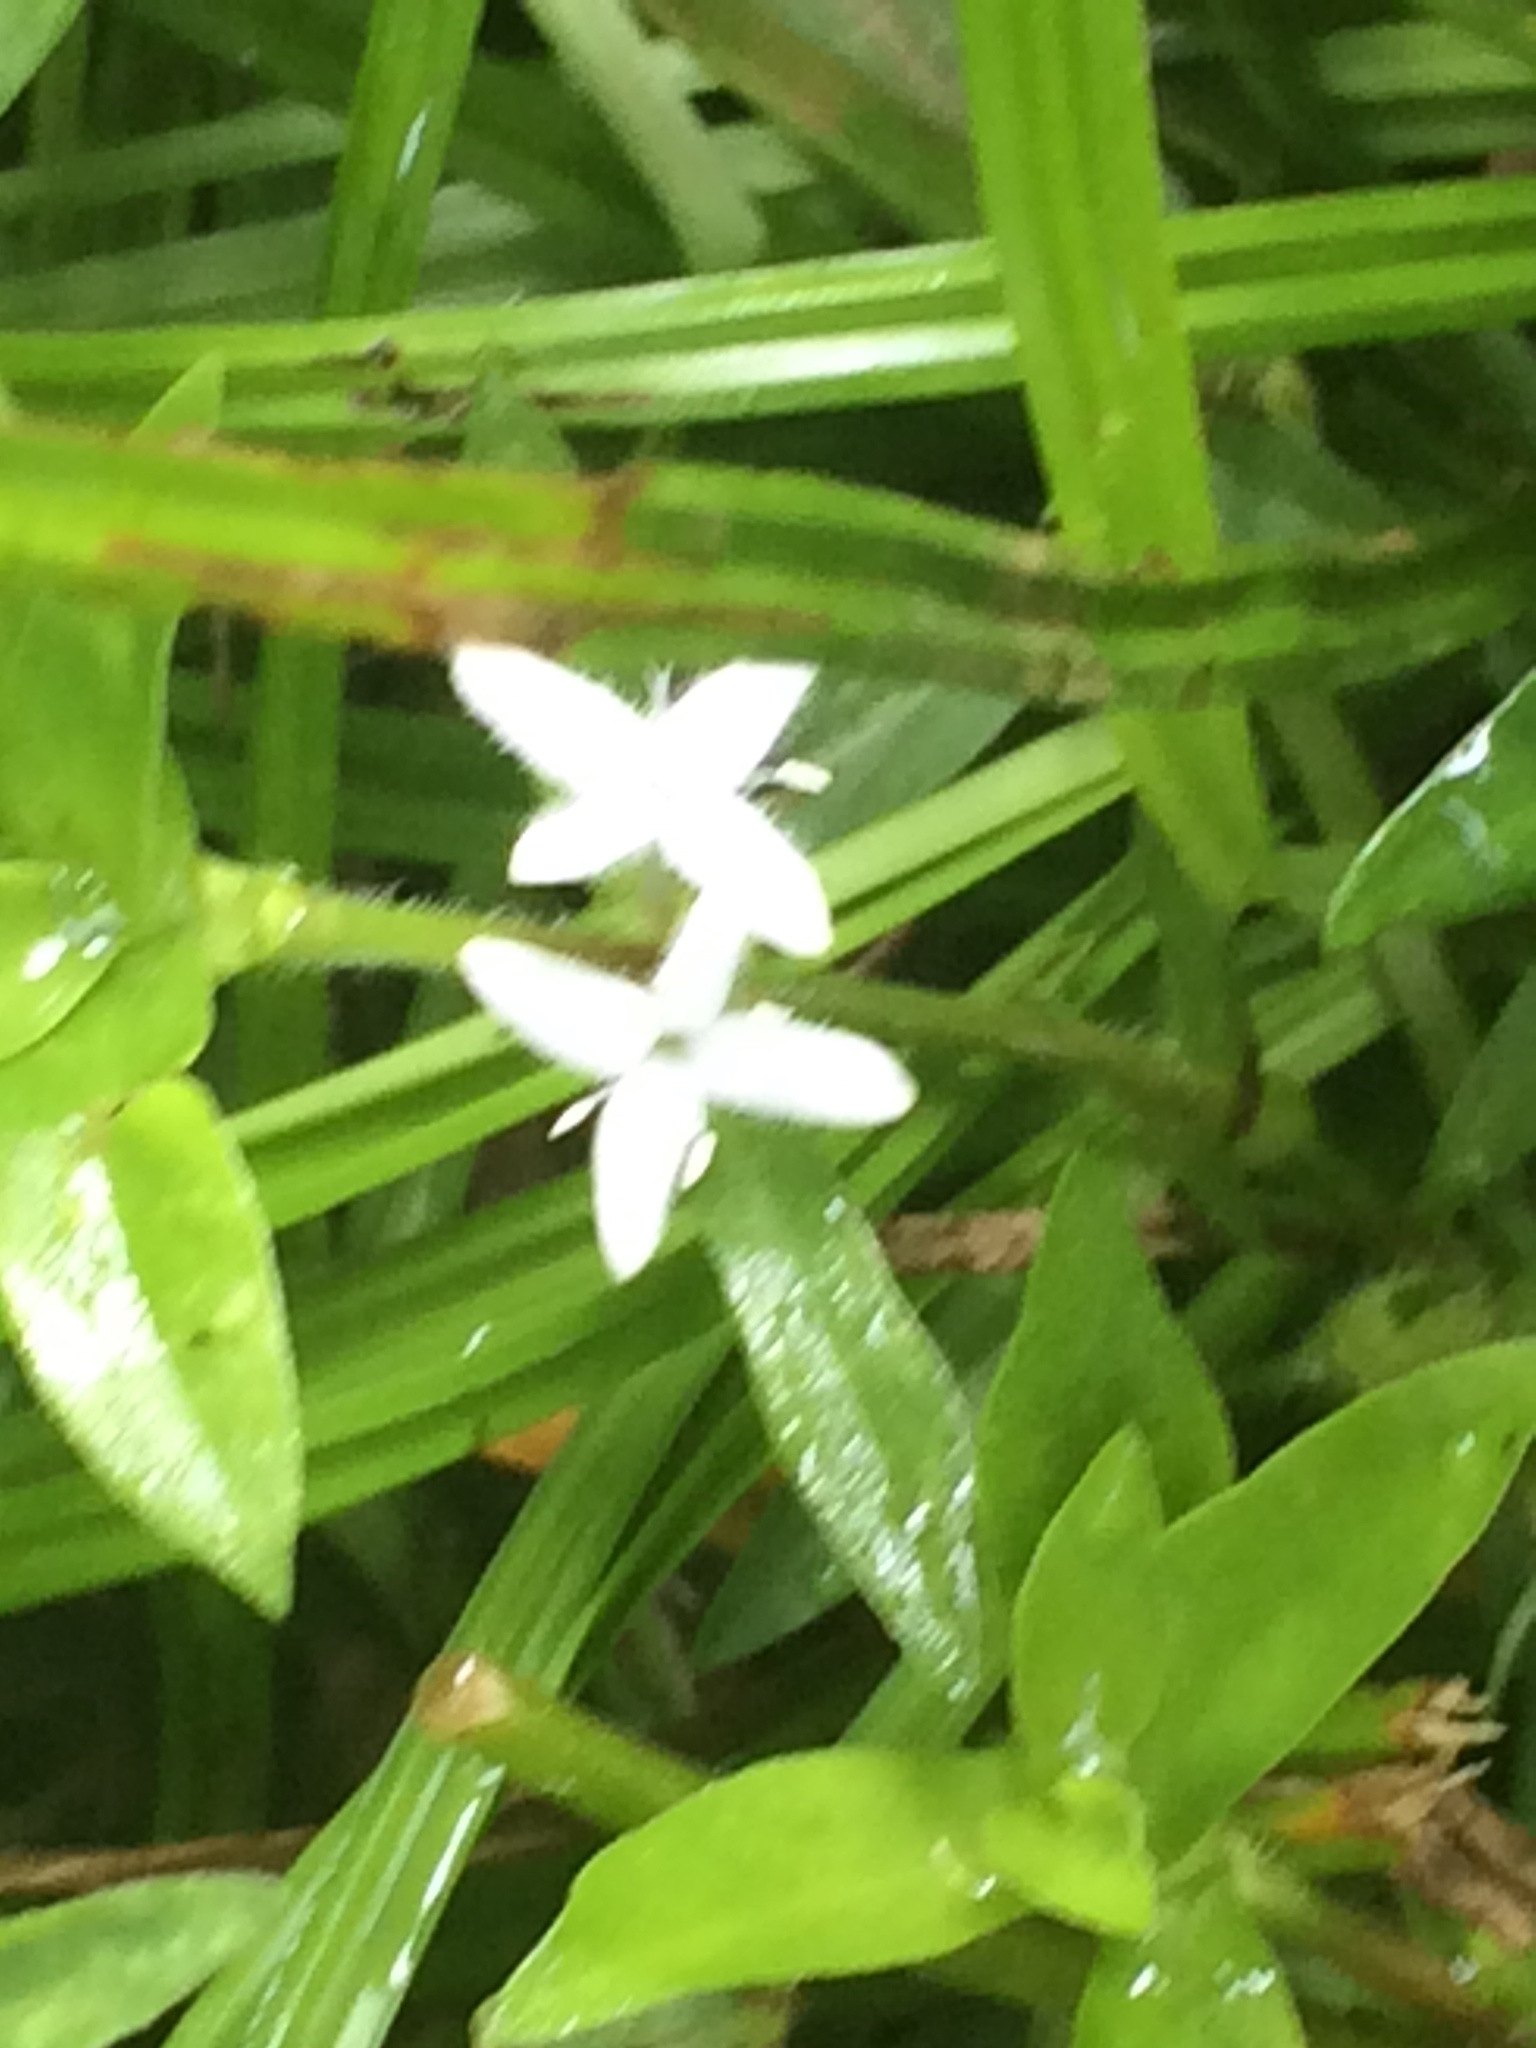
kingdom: Plantae
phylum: Tracheophyta
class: Magnoliopsida
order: Gentianales
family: Rubiaceae
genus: Diodia
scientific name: Diodia virginiana
